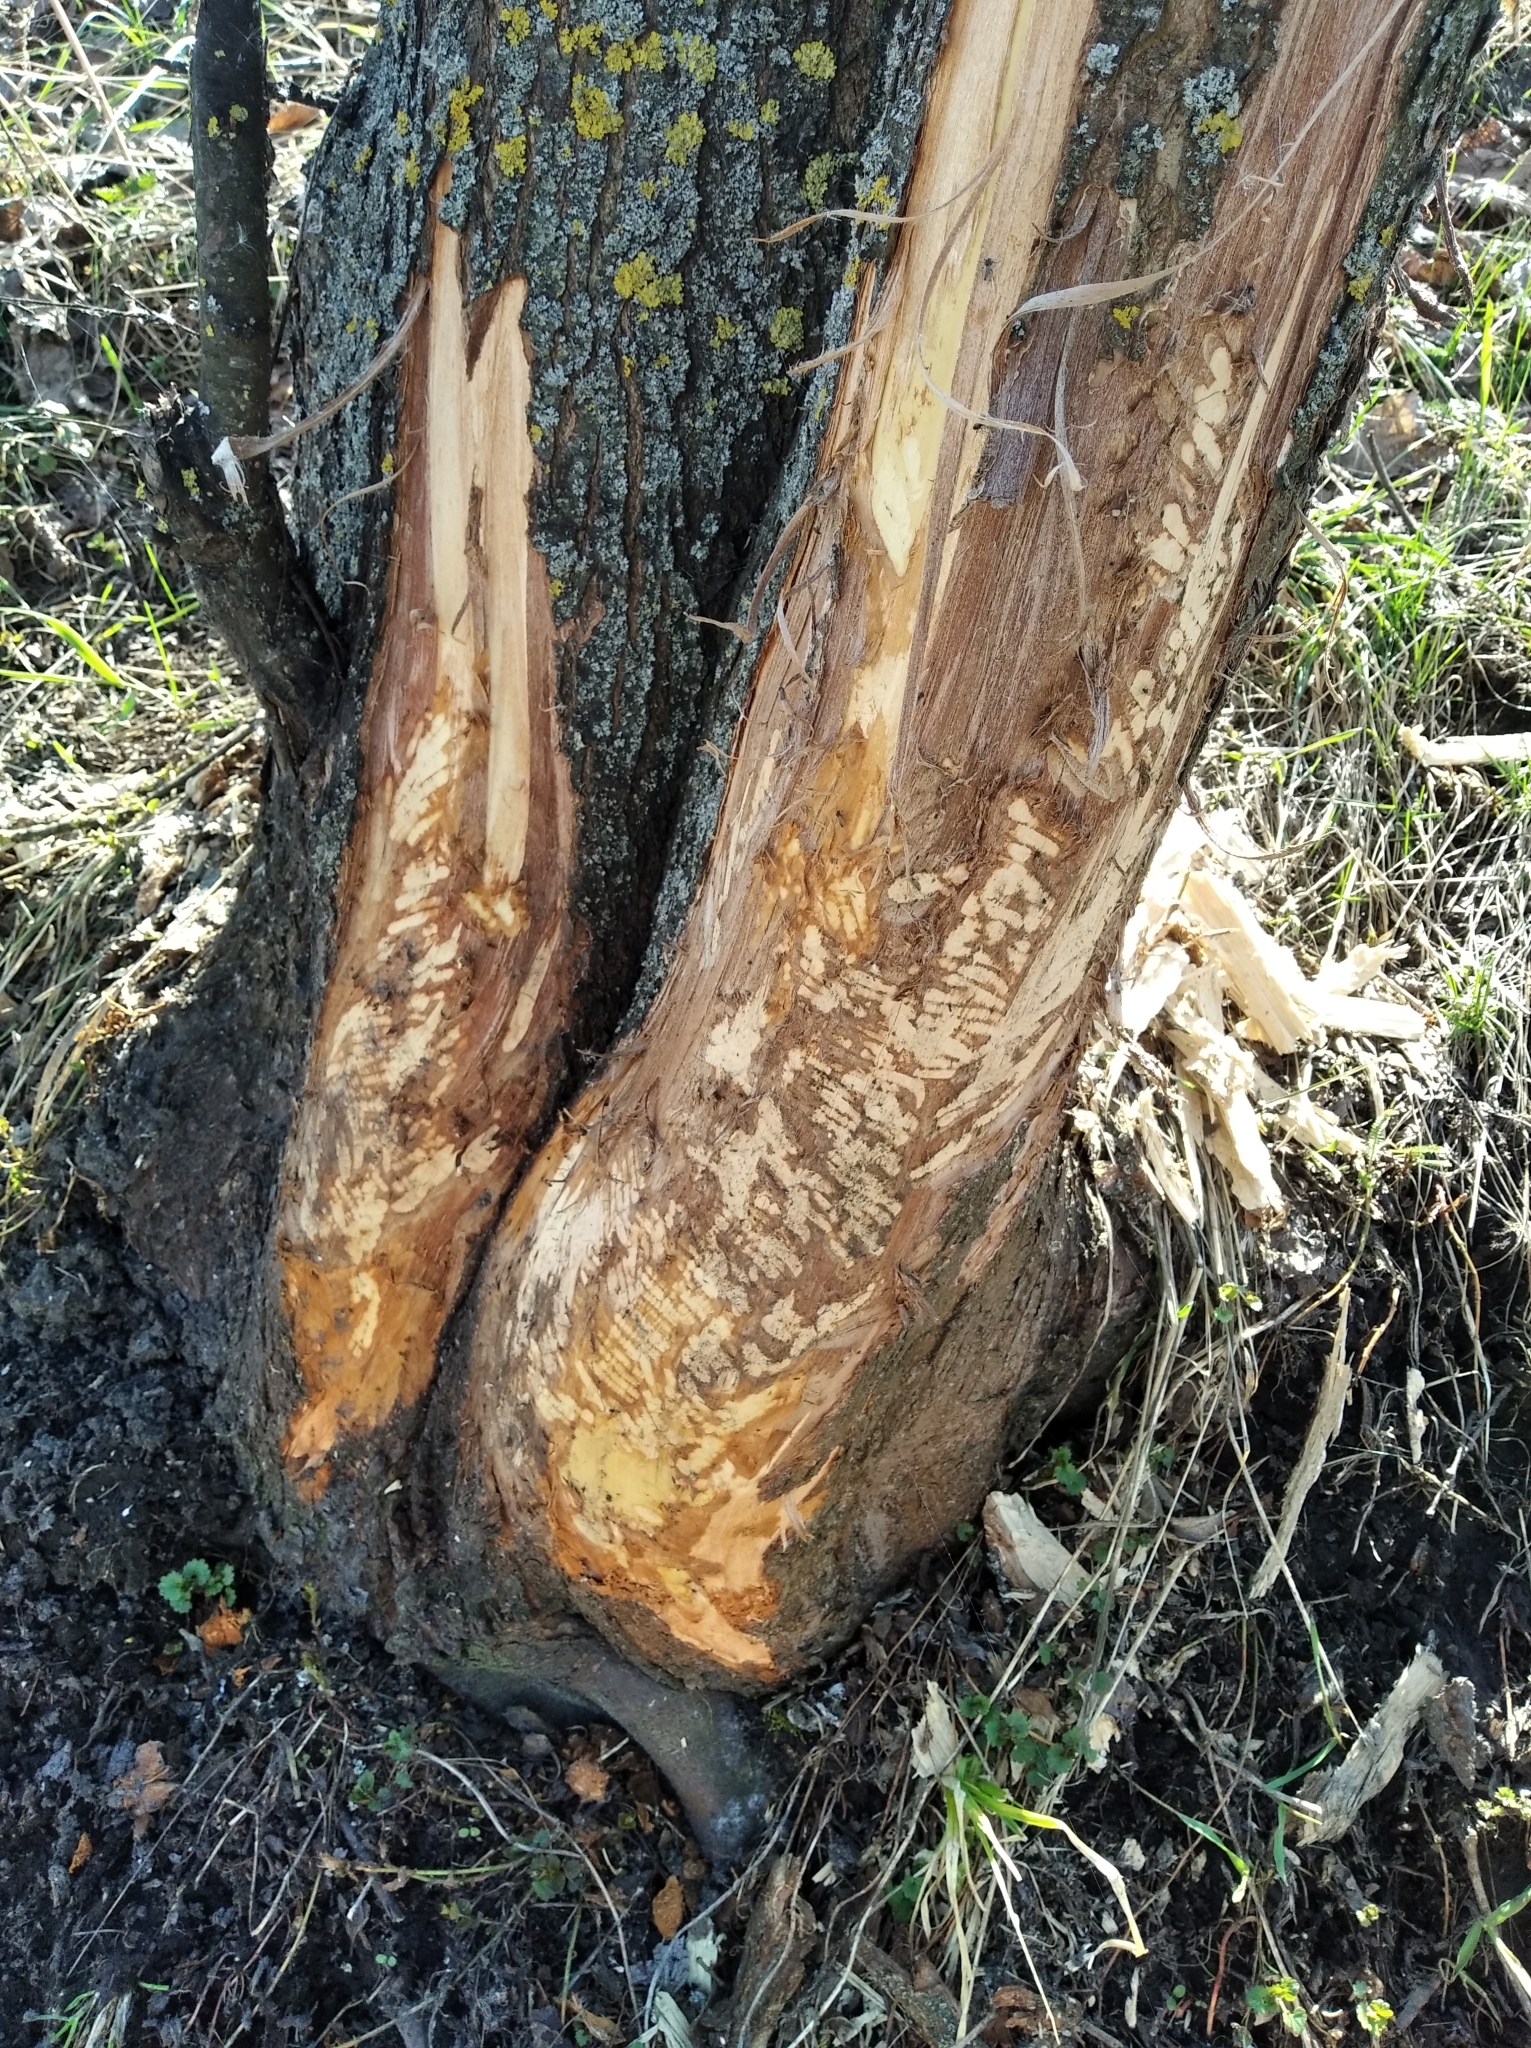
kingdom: Animalia
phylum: Chordata
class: Mammalia
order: Rodentia
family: Castoridae
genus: Castor
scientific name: Castor fiber
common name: Eurasian beaver
